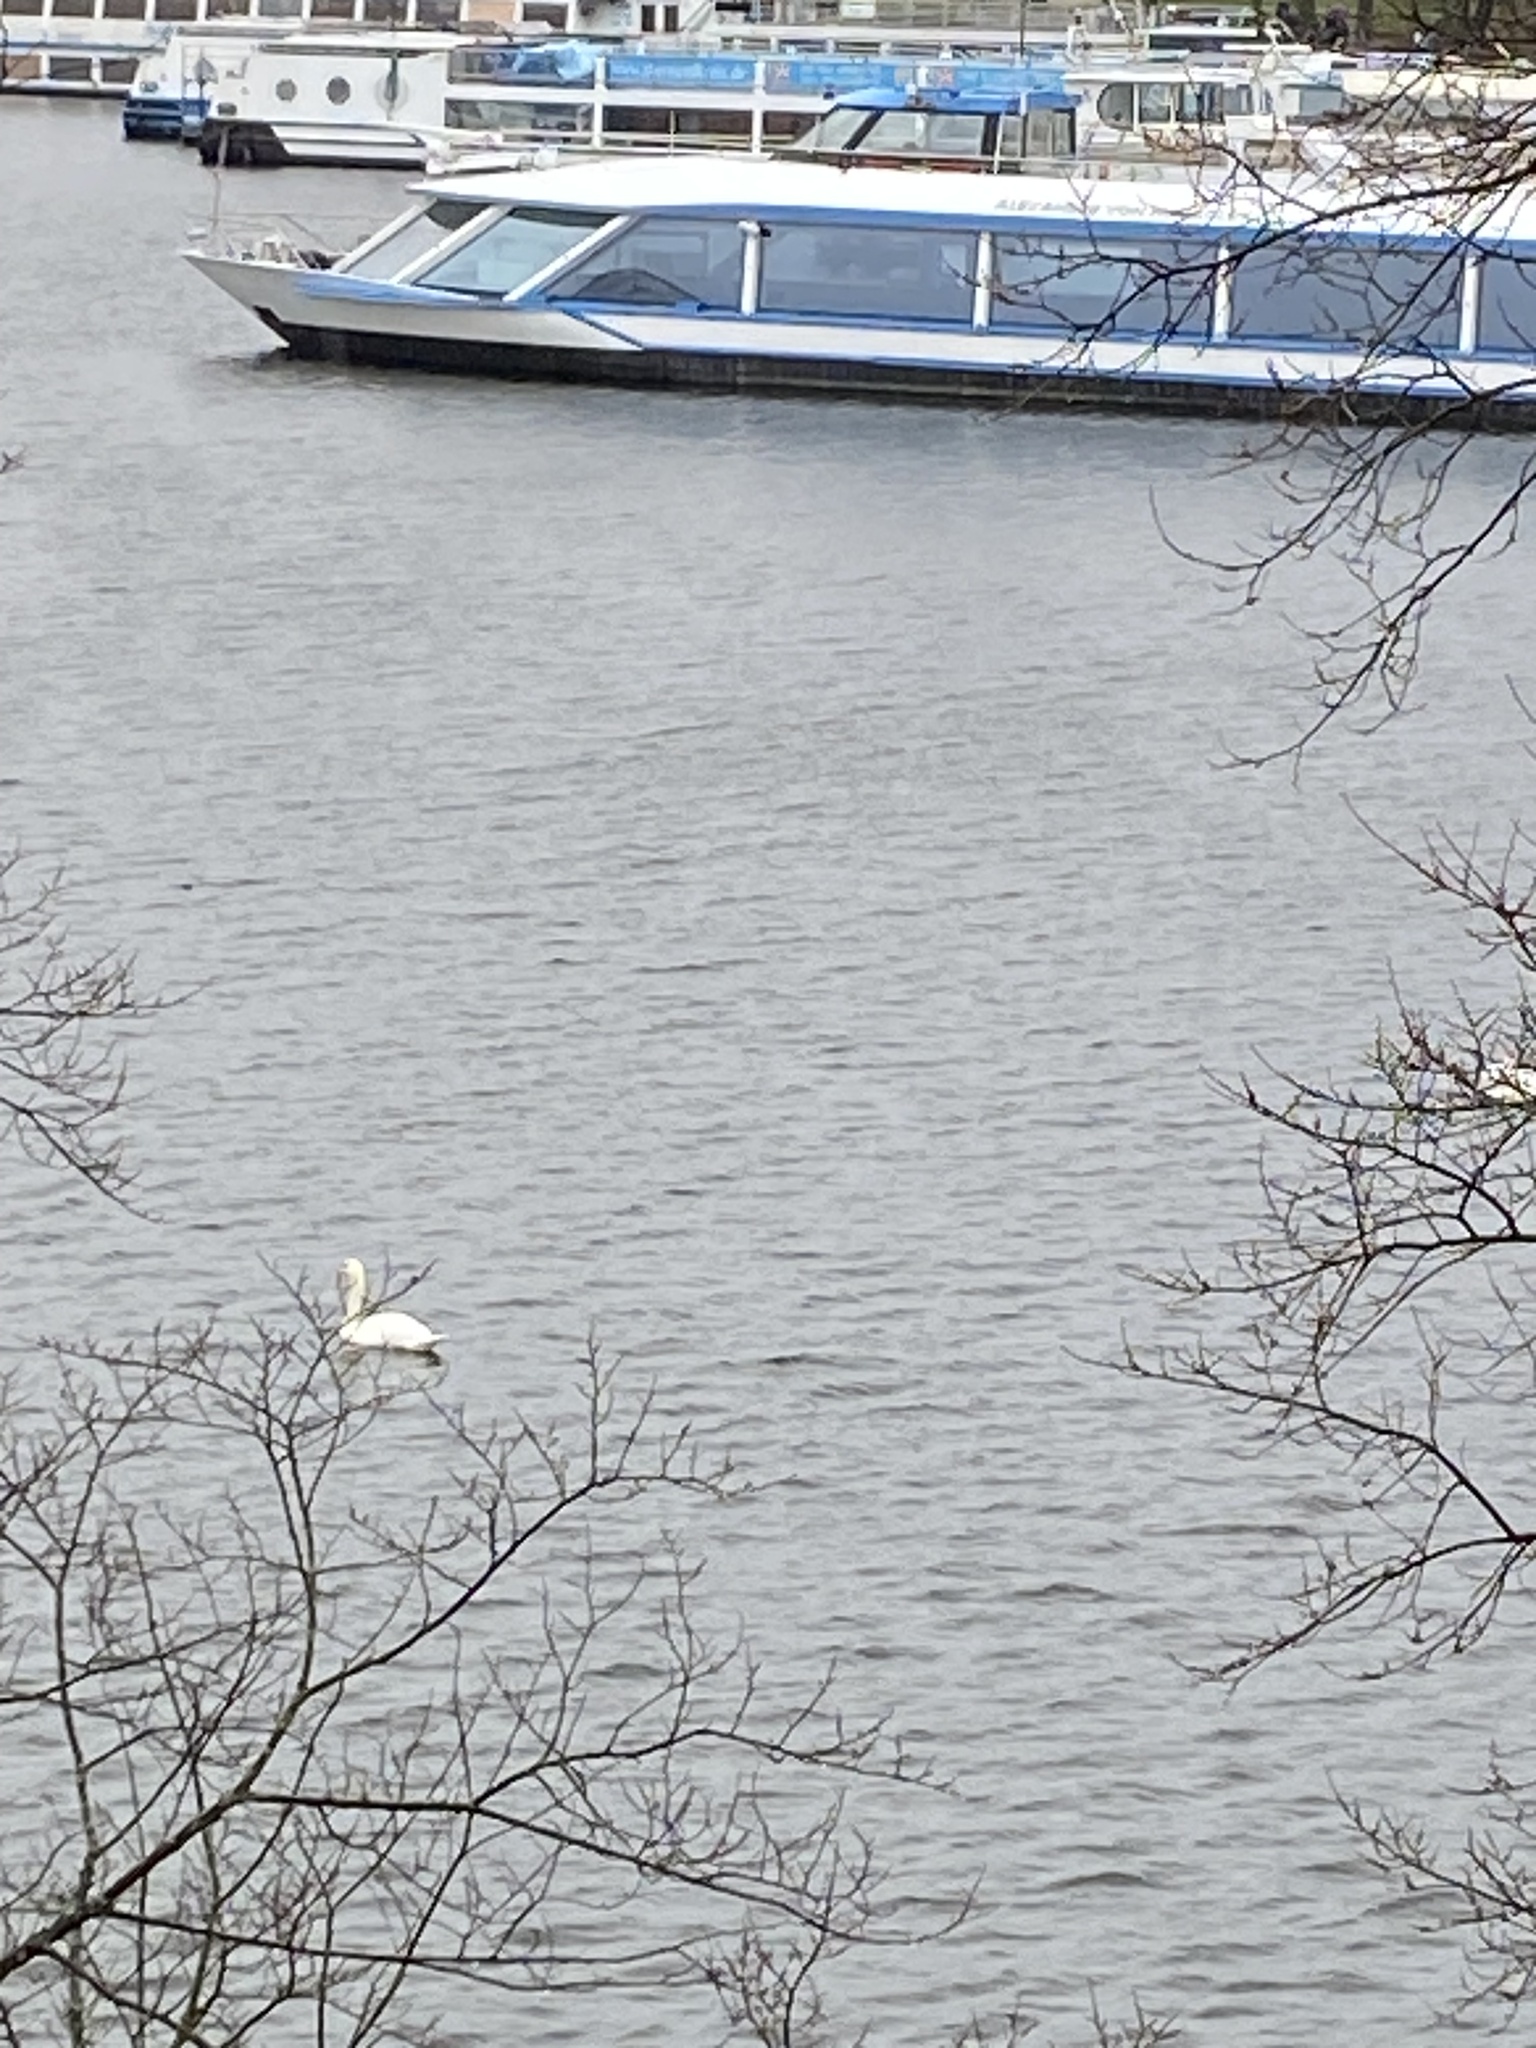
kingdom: Animalia
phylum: Chordata
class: Aves
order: Anseriformes
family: Anatidae
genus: Cygnus
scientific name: Cygnus olor
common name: Mute swan
